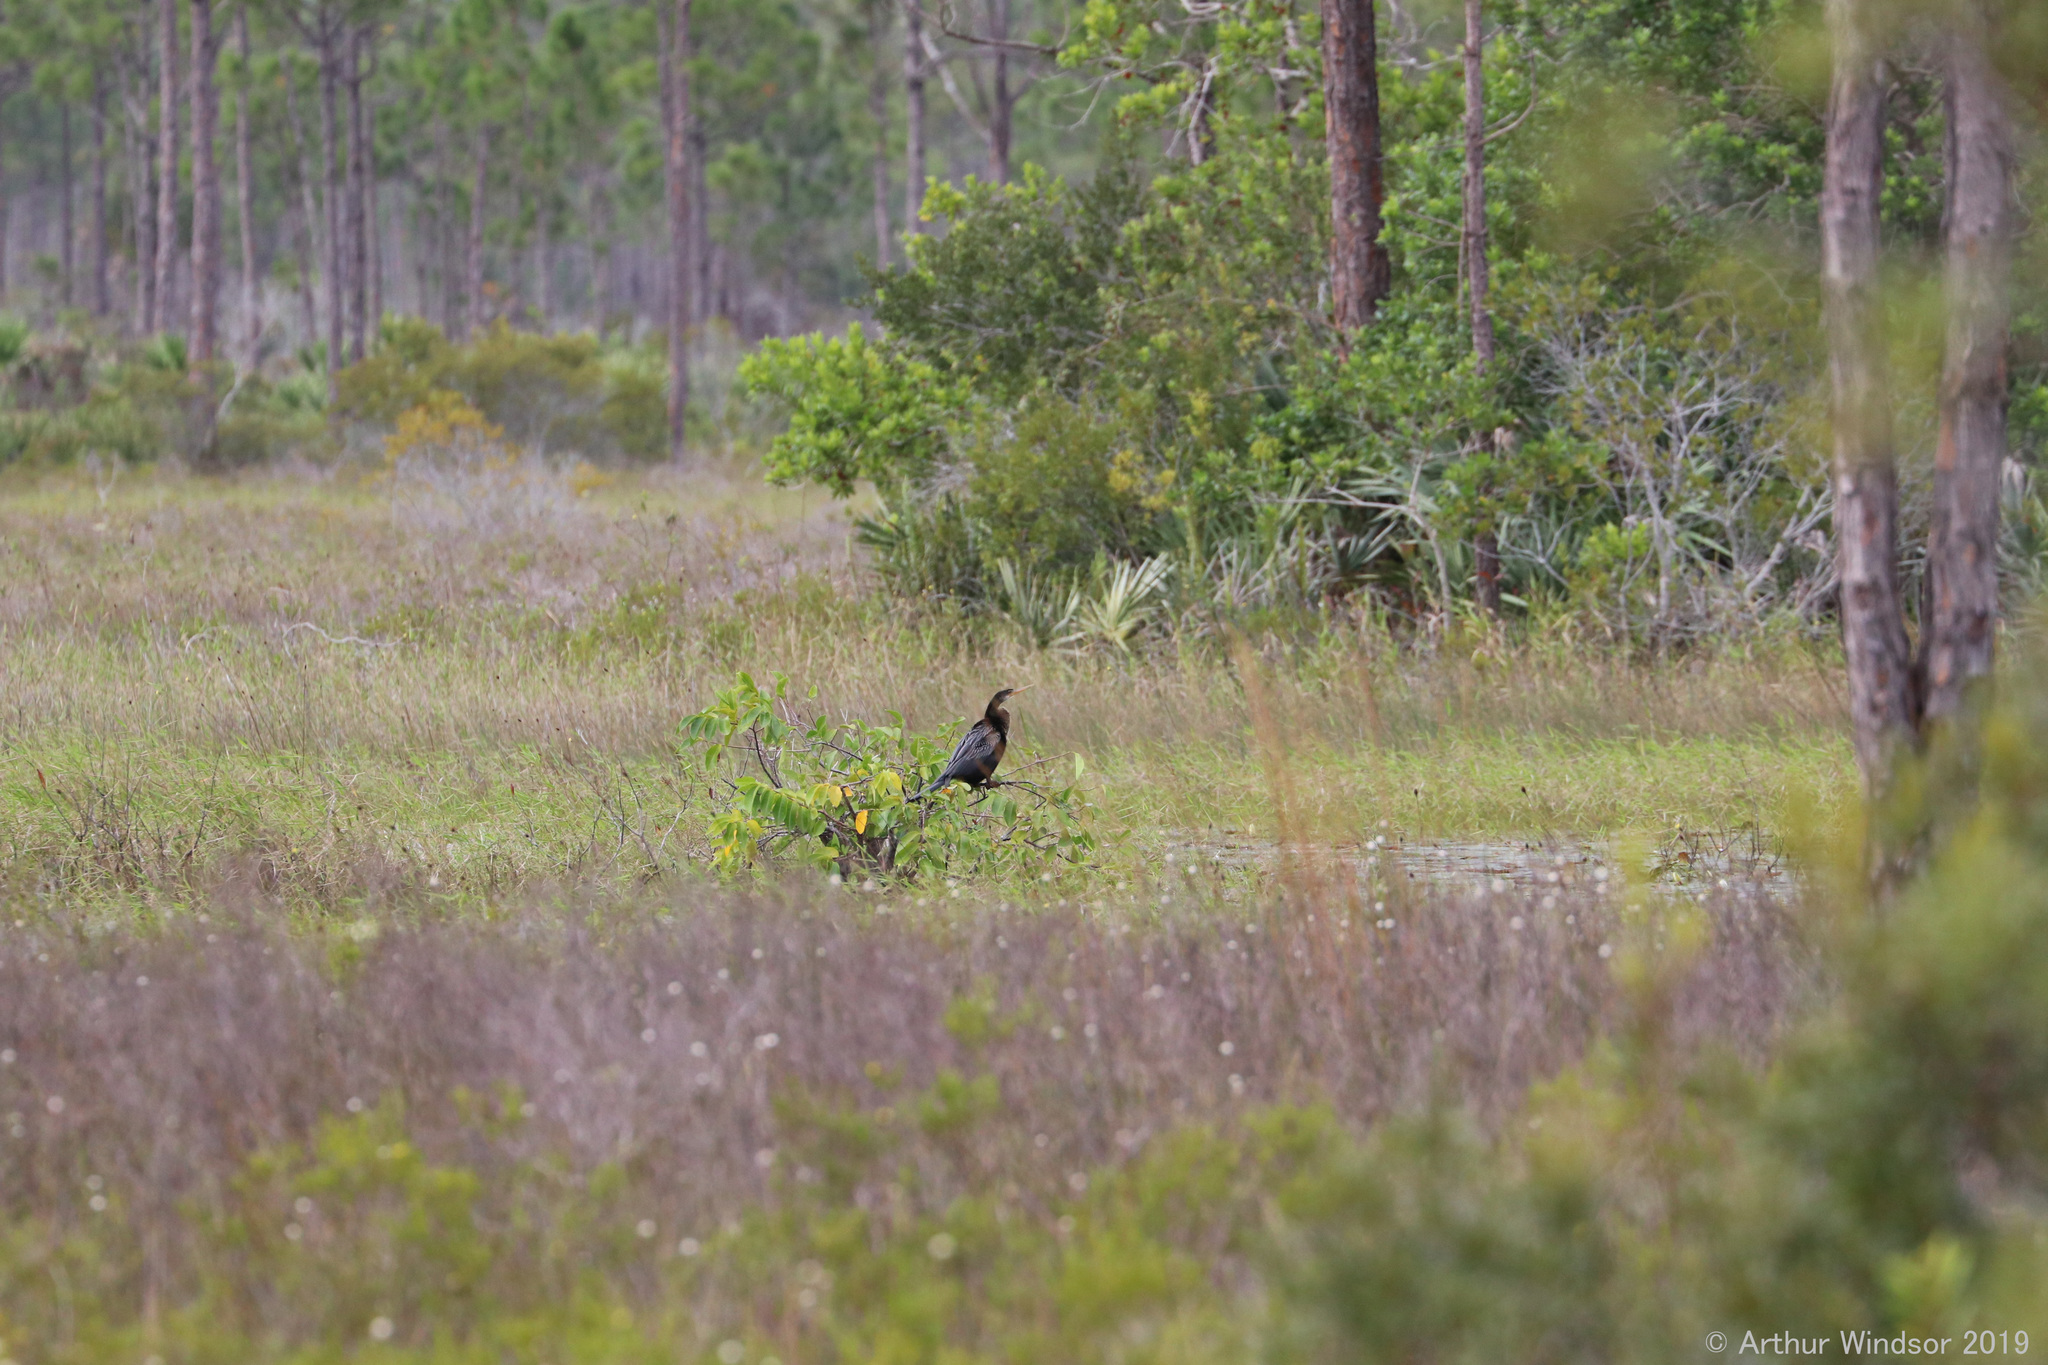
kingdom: Animalia
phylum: Chordata
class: Aves
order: Suliformes
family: Anhingidae
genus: Anhinga
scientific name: Anhinga anhinga
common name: Anhinga
